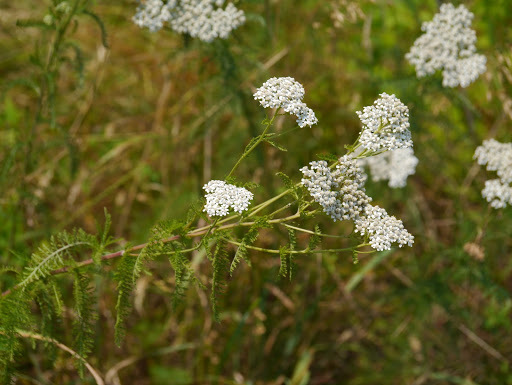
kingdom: Plantae
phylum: Tracheophyta
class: Magnoliopsida
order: Asterales
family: Asteraceae
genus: Achillea
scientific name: Achillea millefolium
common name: Yarrow
